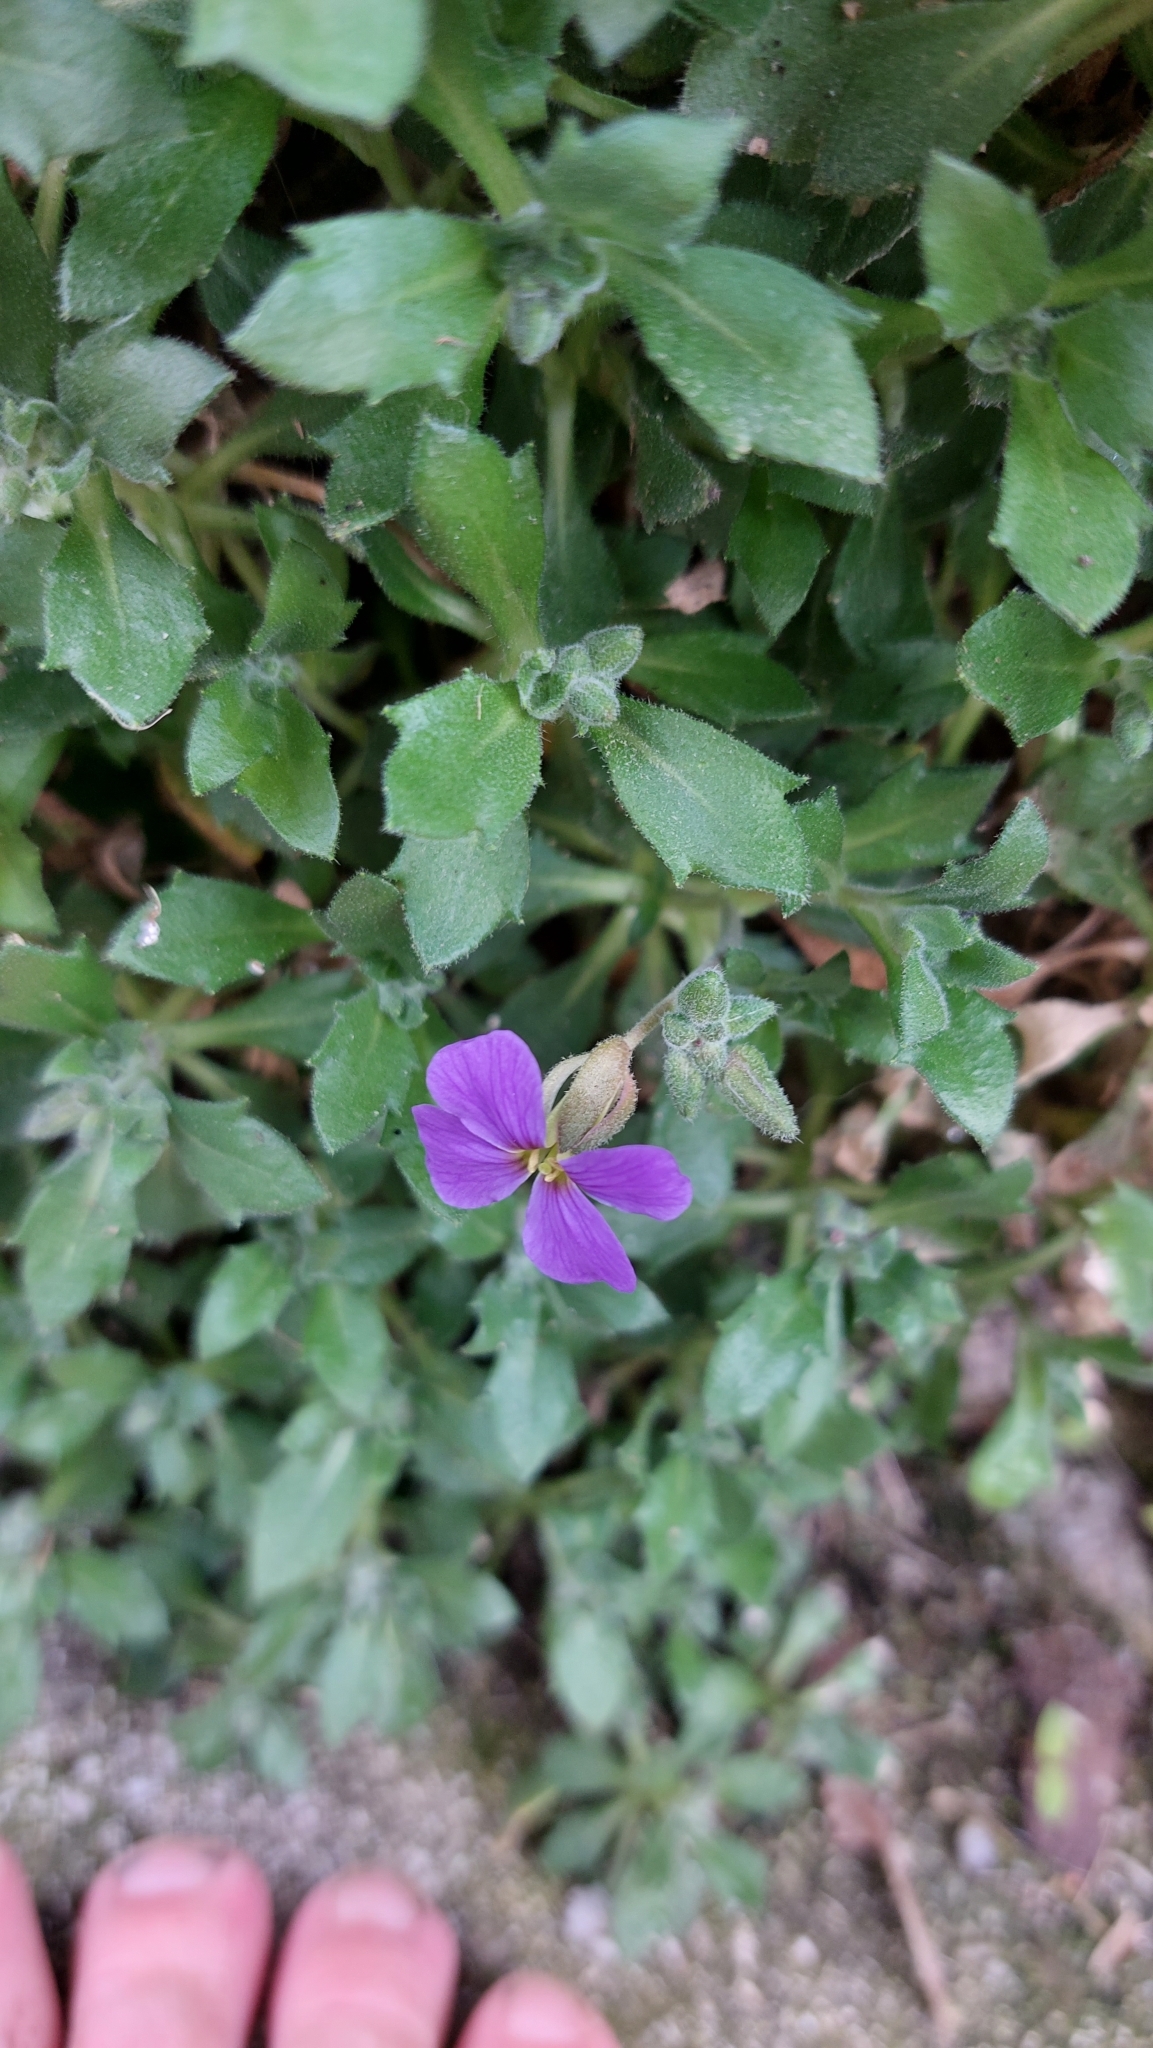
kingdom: Plantae
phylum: Tracheophyta
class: Magnoliopsida
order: Brassicales
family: Brassicaceae
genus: Aubrieta
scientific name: Aubrieta deltoidea
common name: Aubretia
